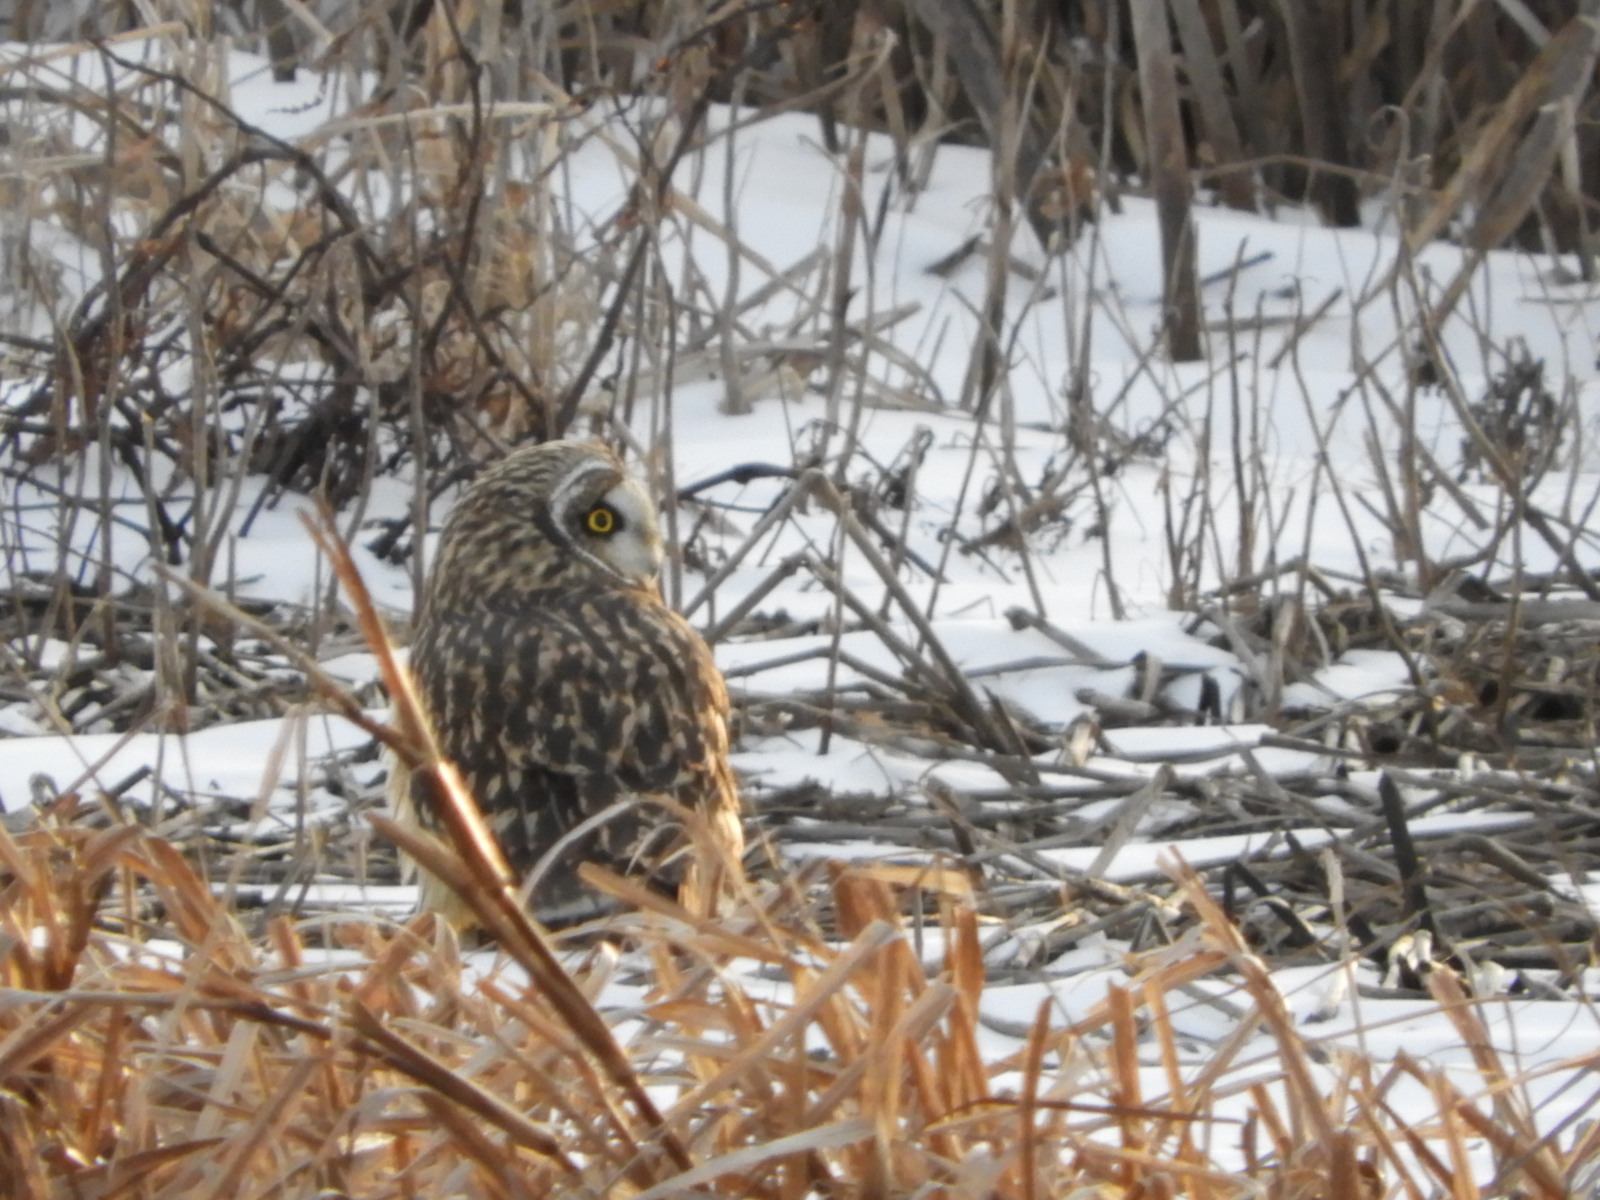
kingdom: Animalia
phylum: Chordata
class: Aves
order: Strigiformes
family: Strigidae
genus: Asio
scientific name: Asio flammeus
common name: Short-eared owl
